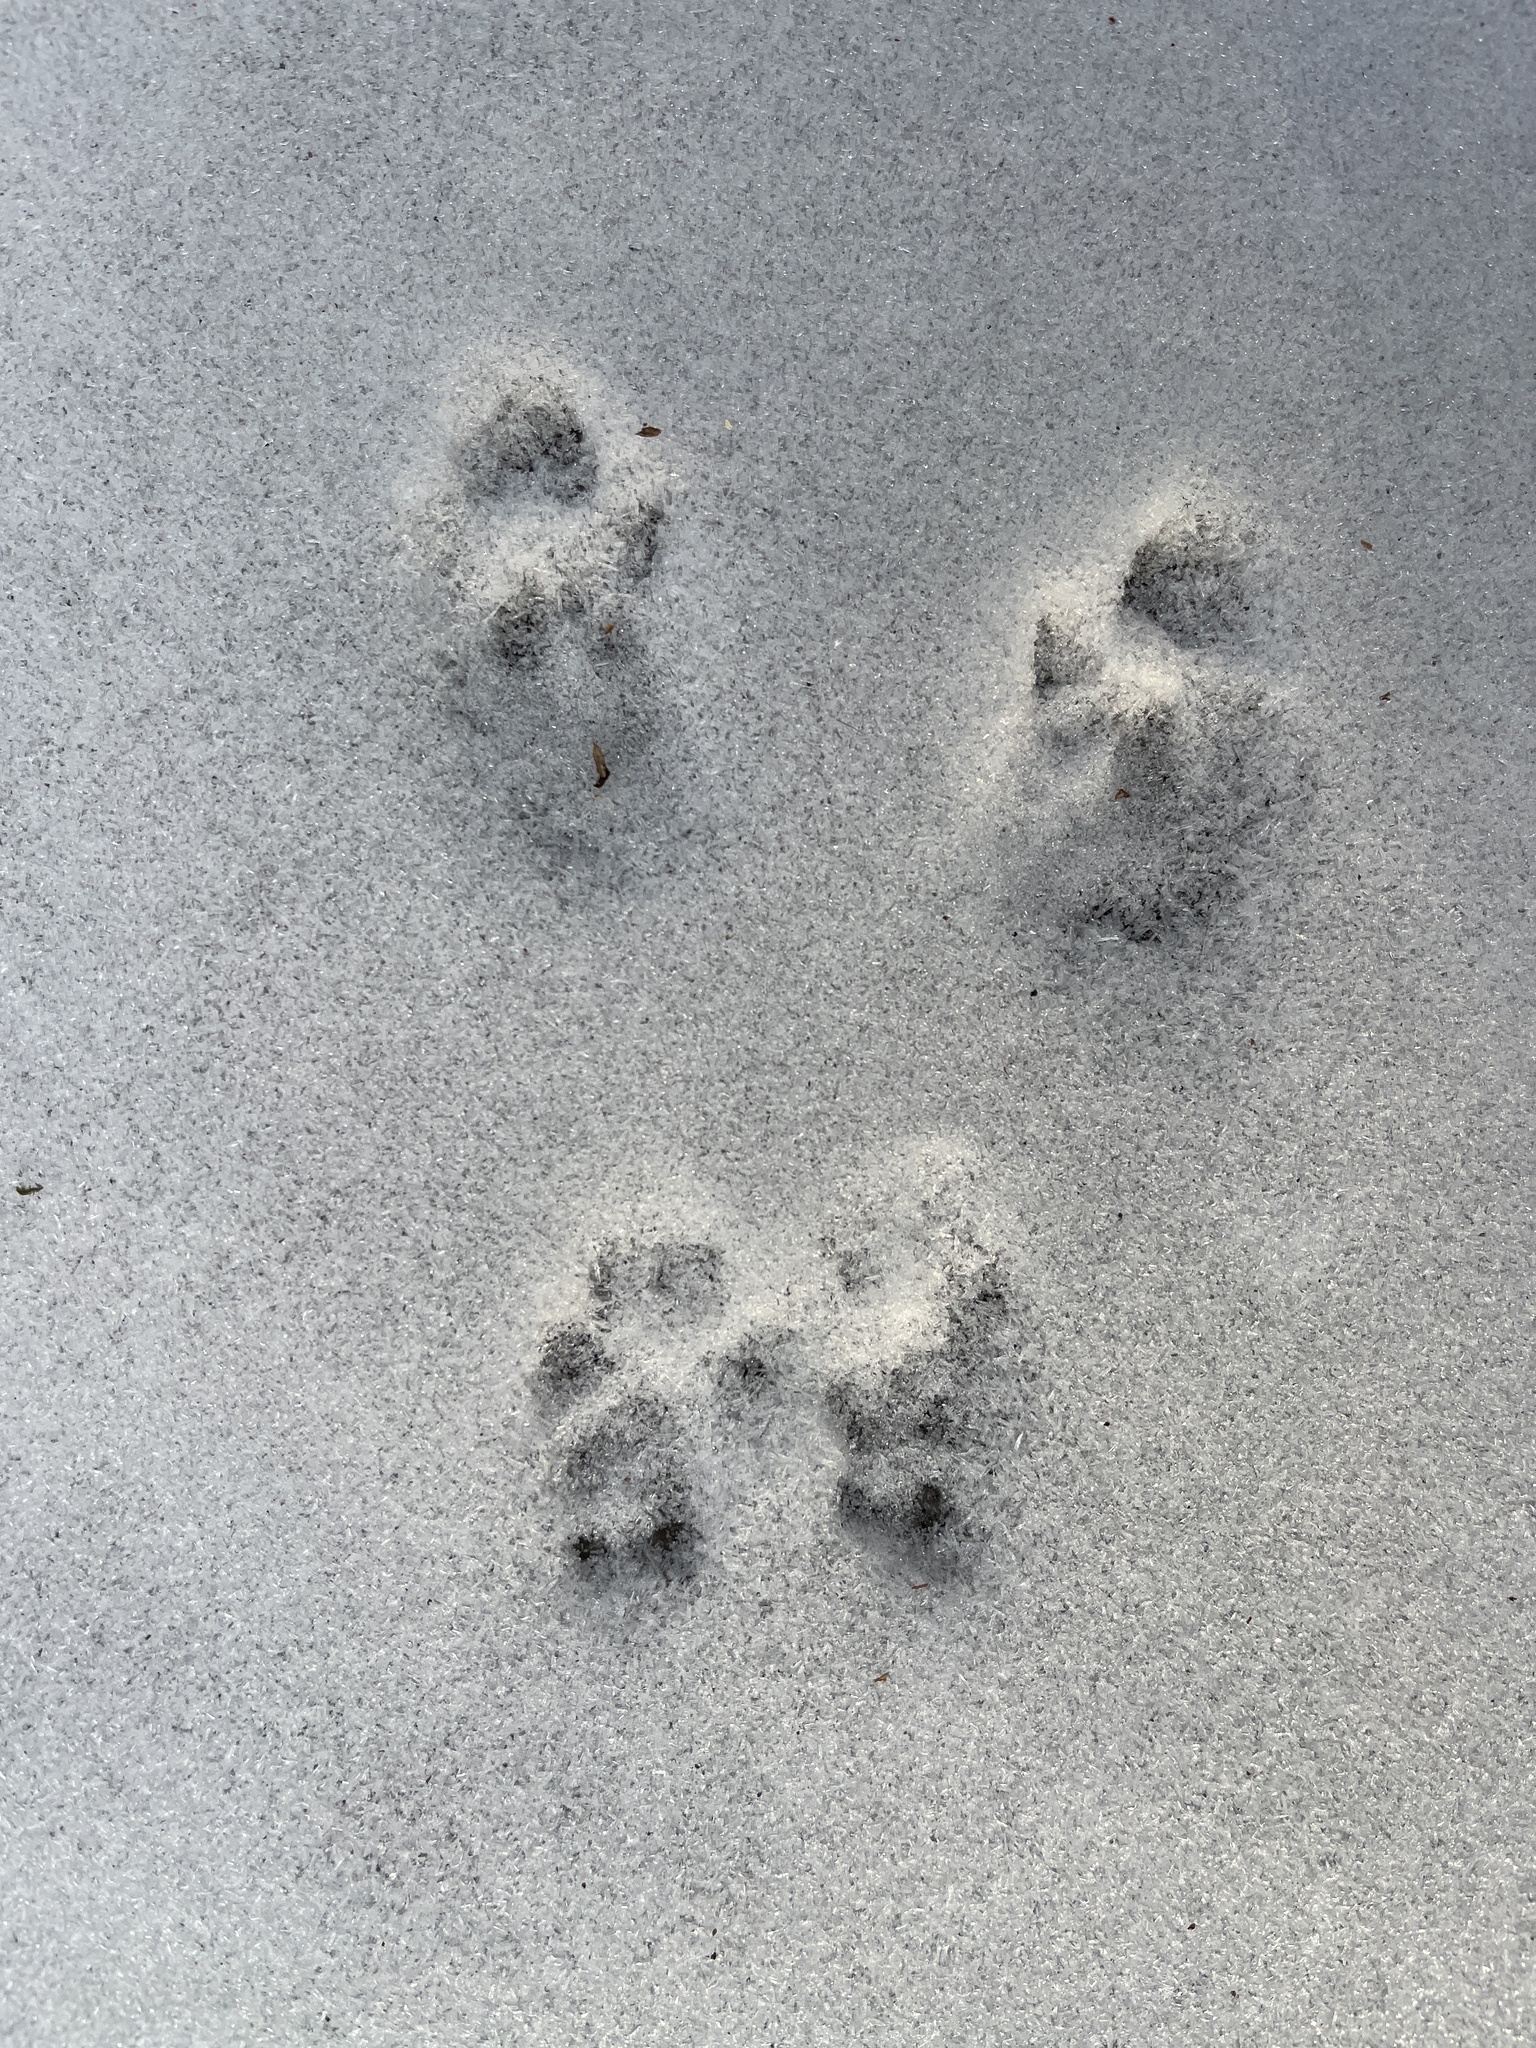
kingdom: Animalia
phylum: Chordata
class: Mammalia
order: Rodentia
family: Sciuridae
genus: Sciurus
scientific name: Sciurus carolinensis
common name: Eastern gray squirrel
